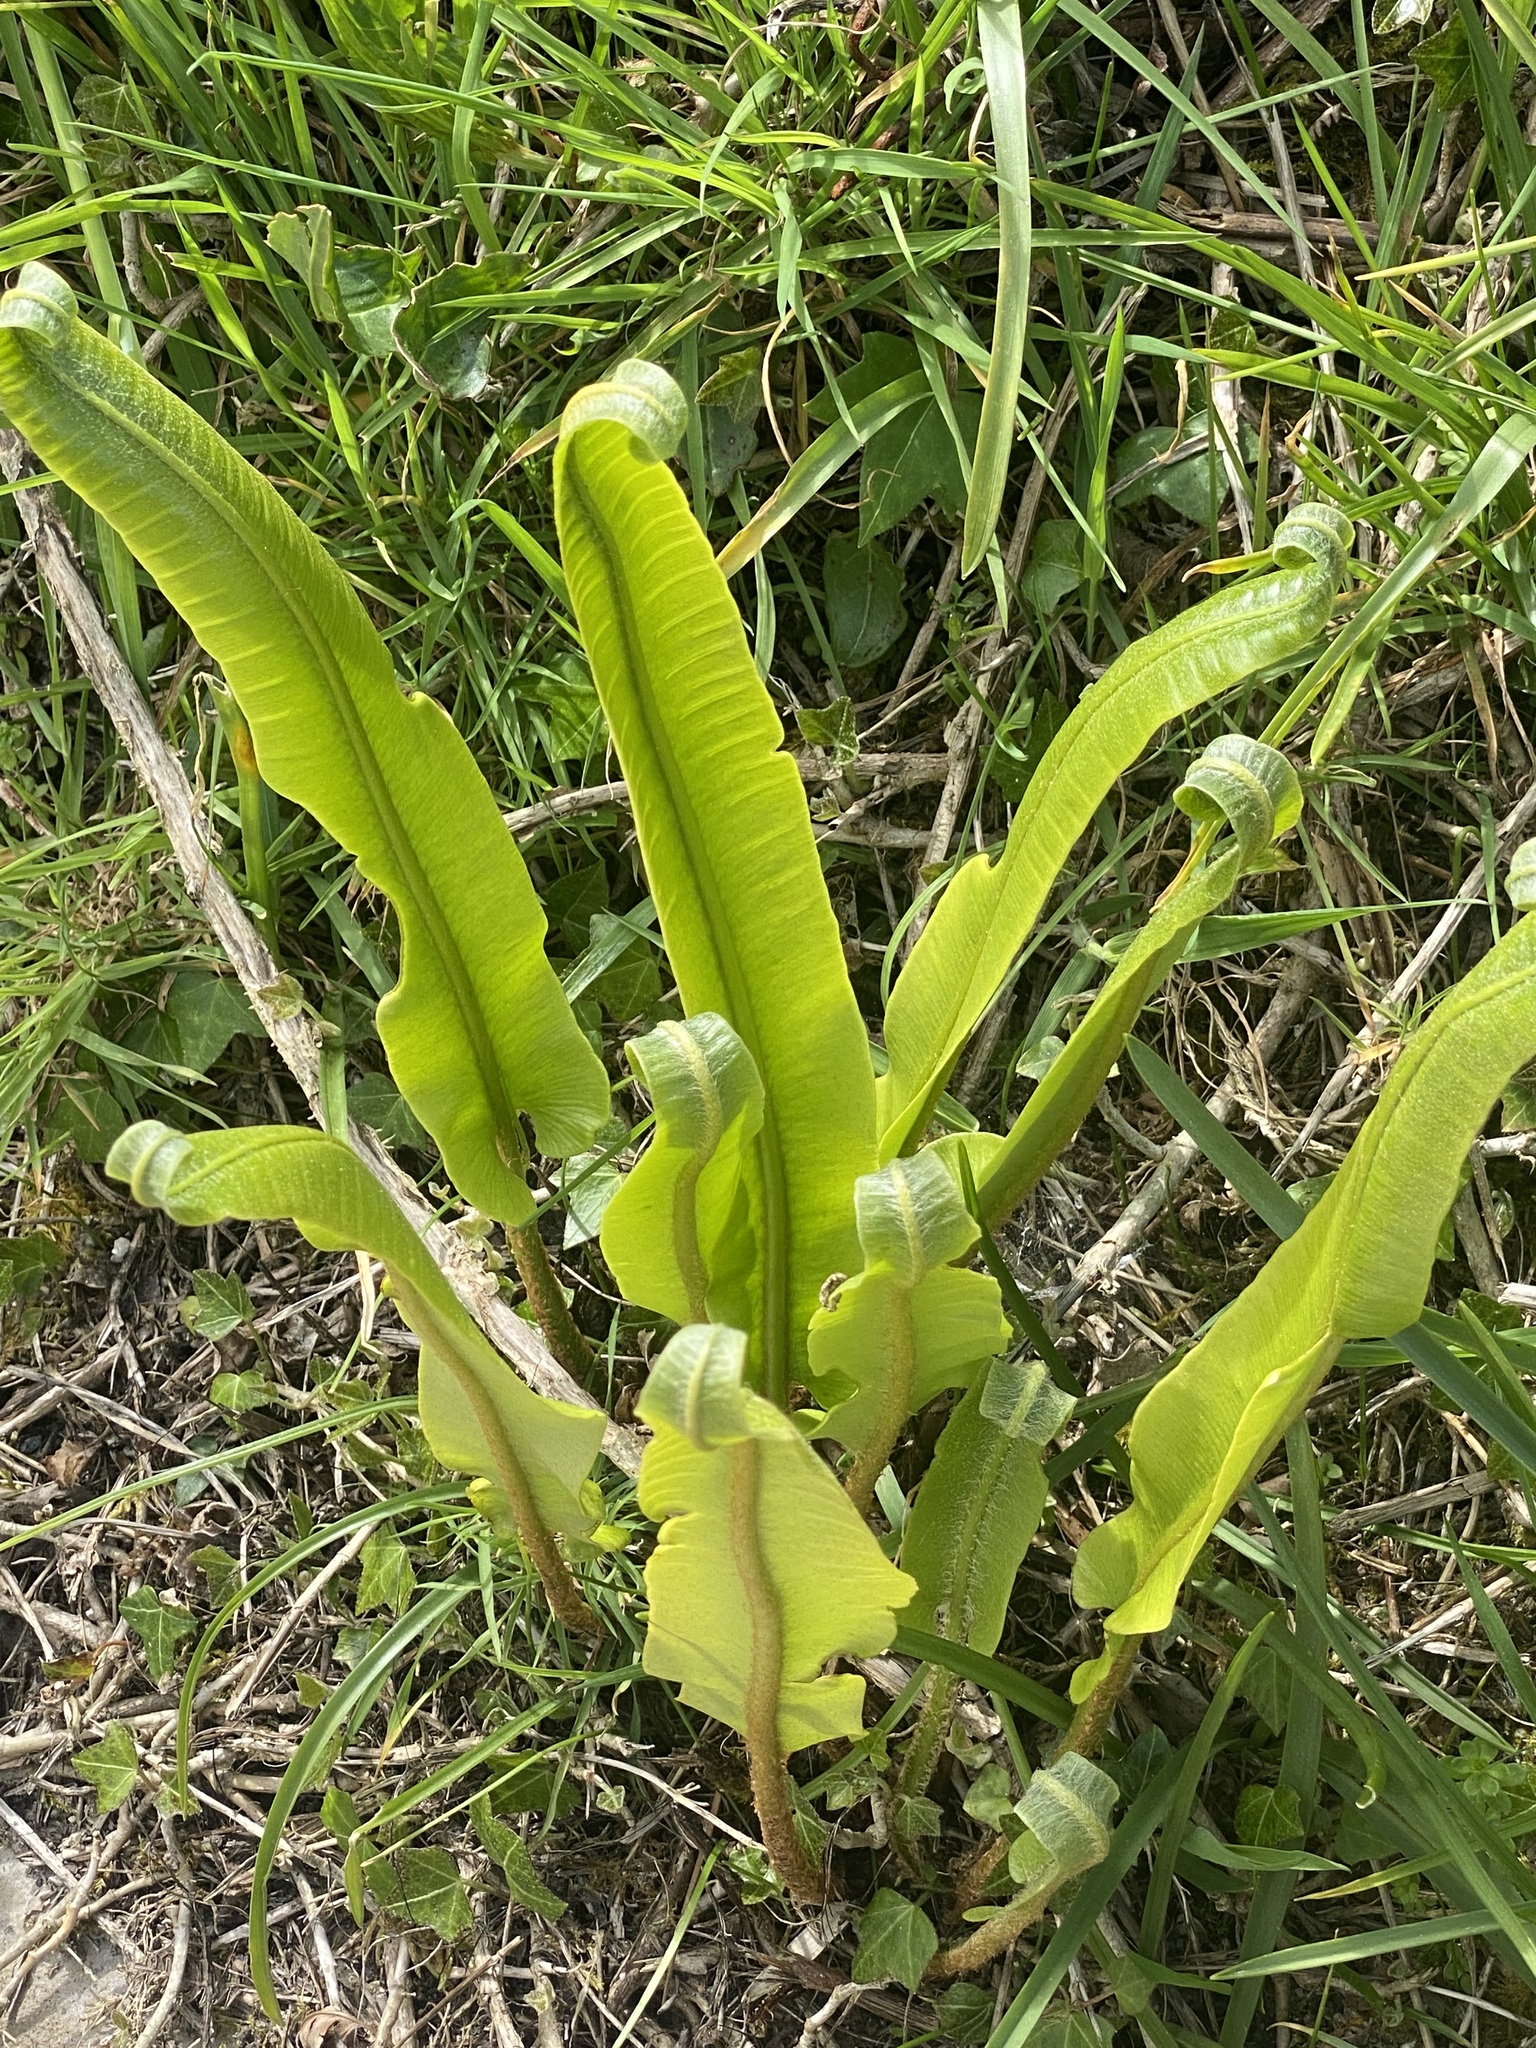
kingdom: Plantae
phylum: Tracheophyta
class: Polypodiopsida
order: Polypodiales
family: Aspleniaceae
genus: Asplenium
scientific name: Asplenium scolopendrium
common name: Hart's-tongue fern
